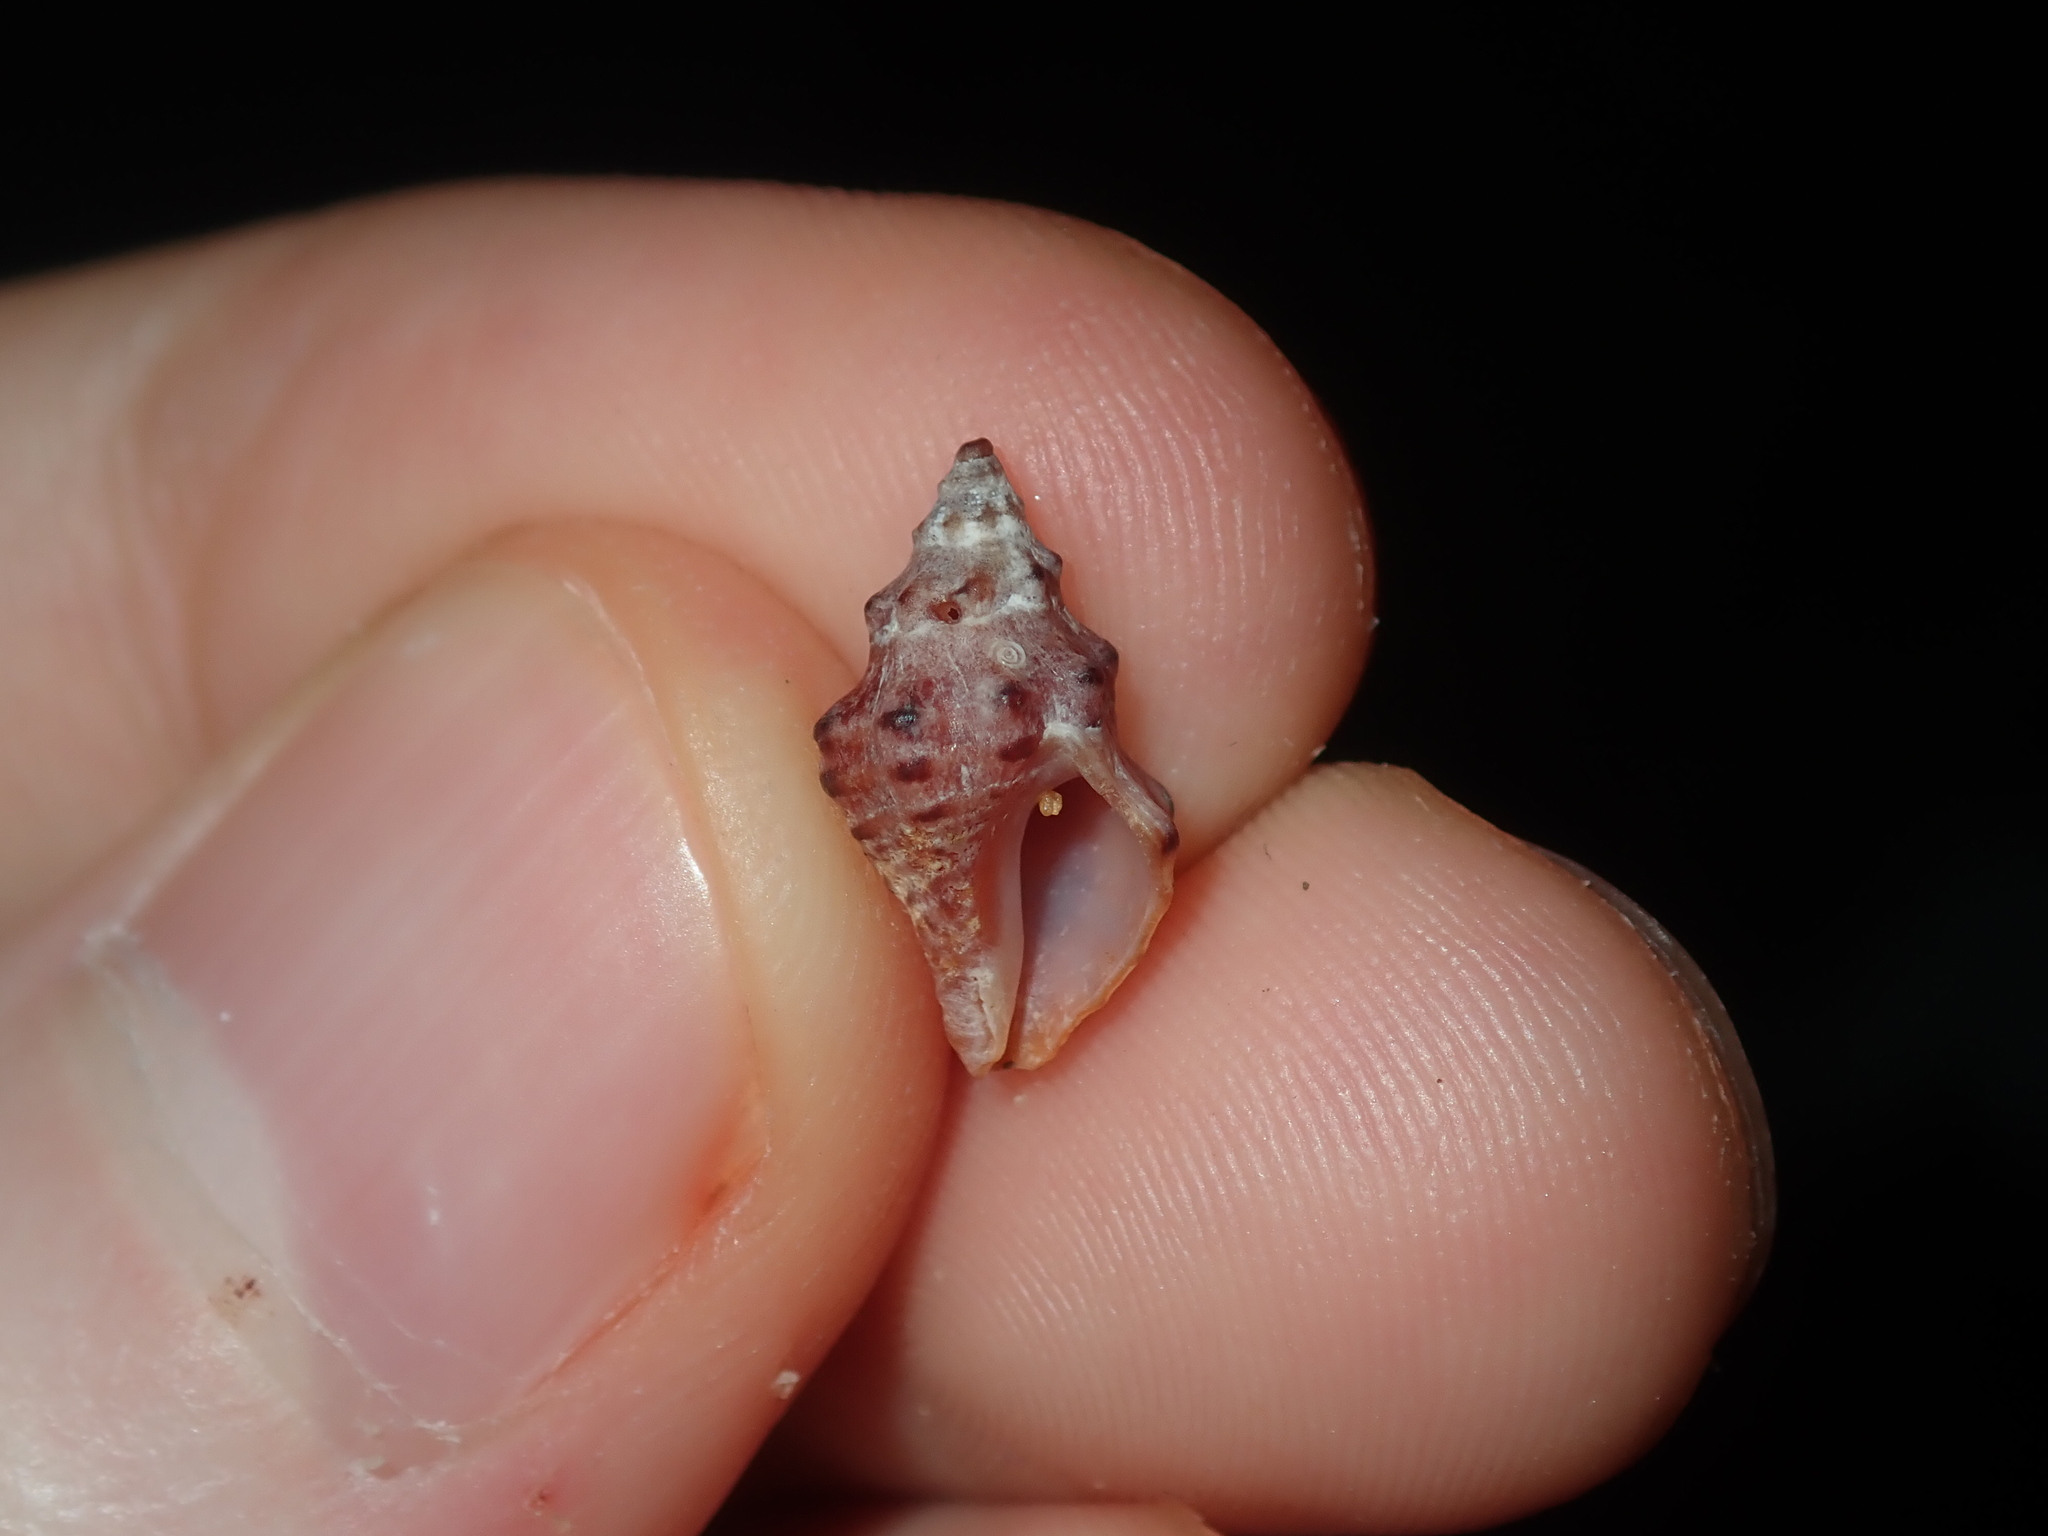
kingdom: Animalia
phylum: Mollusca
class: Gastropoda
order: Neogastropoda
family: Muricidae
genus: Phycothais
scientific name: Phycothais reticulata
